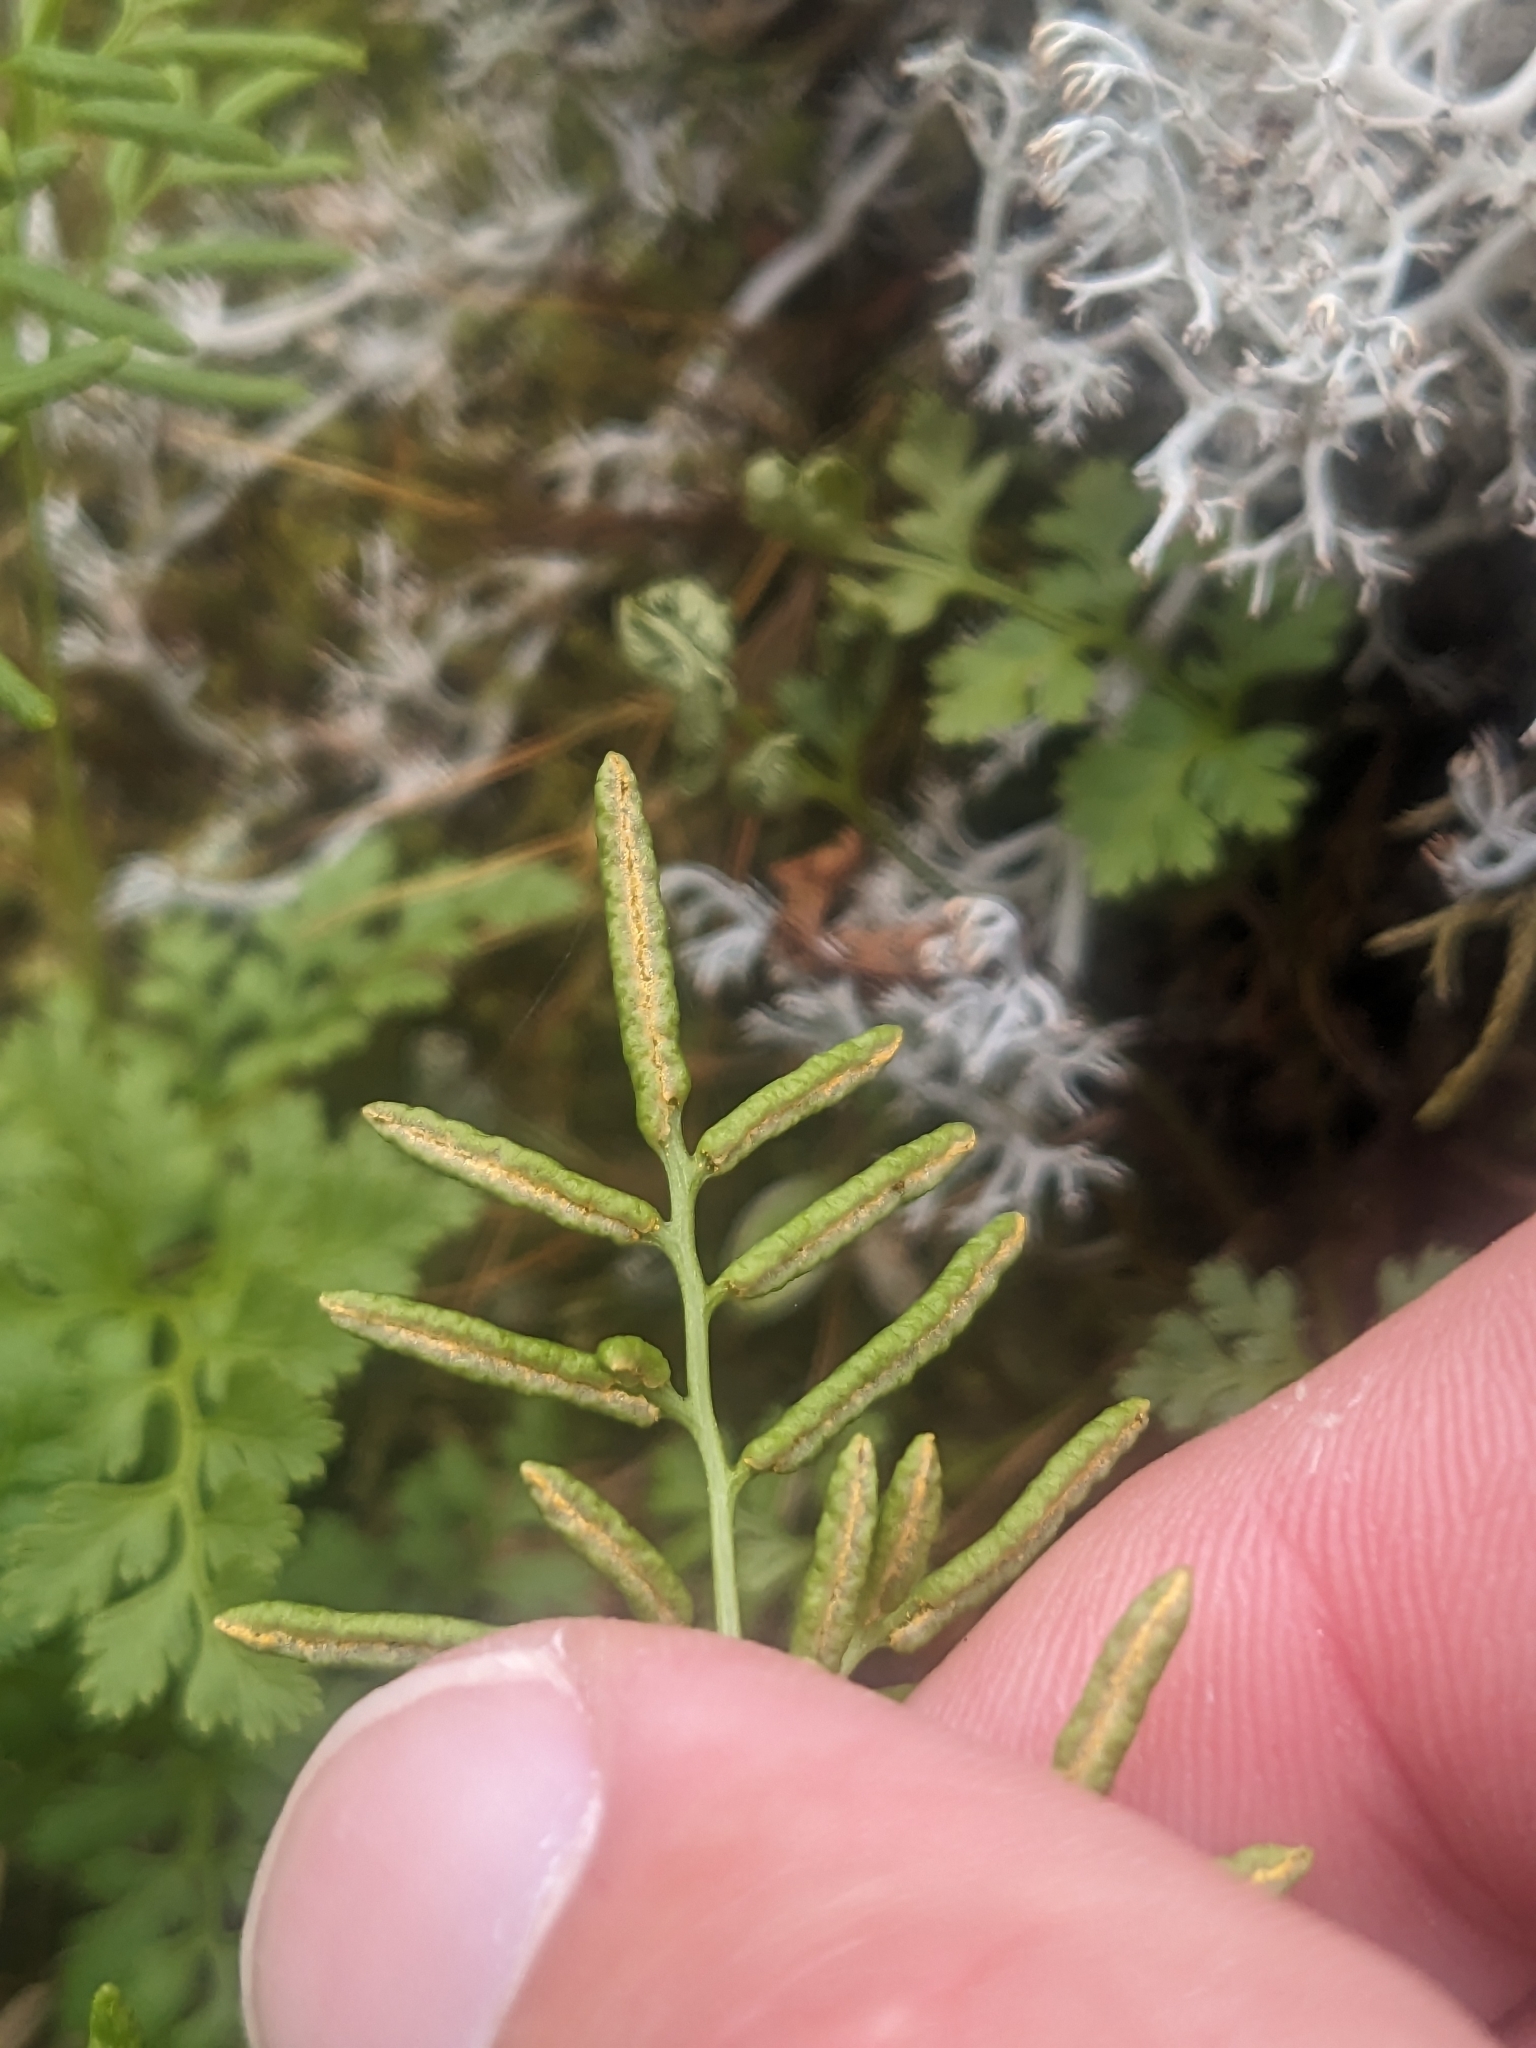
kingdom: Plantae
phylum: Tracheophyta
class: Polypodiopsida
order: Polypodiales
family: Pteridaceae
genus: Cryptogramma
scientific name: Cryptogramma acrostichoides
